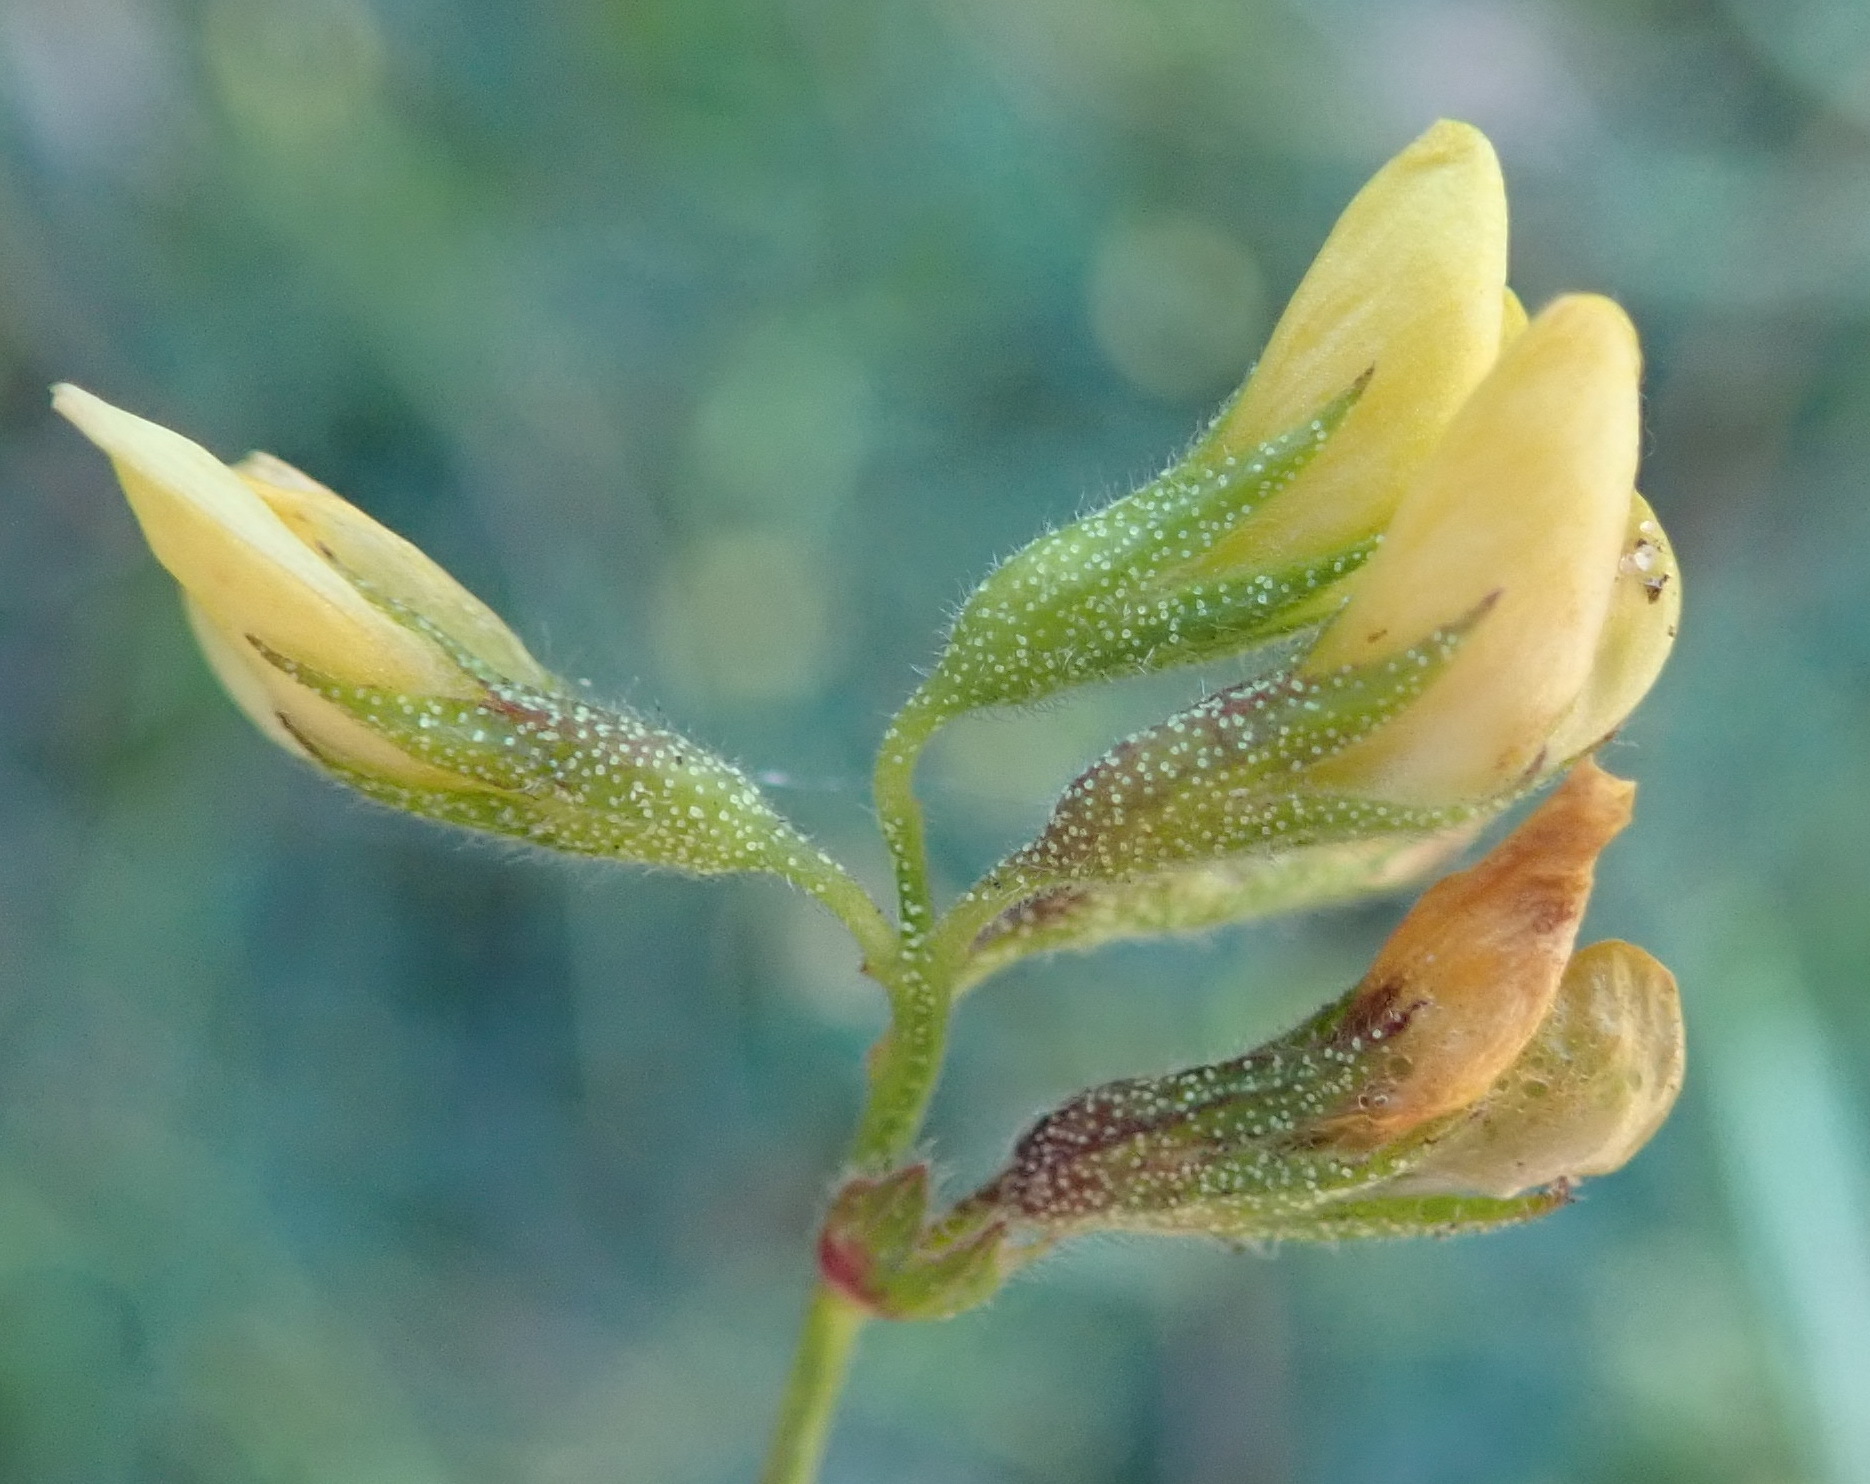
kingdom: Plantae
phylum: Tracheophyta
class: Magnoliopsida
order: Fabales
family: Fabaceae
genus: Rhynchosia
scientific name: Rhynchosia leucoscias
